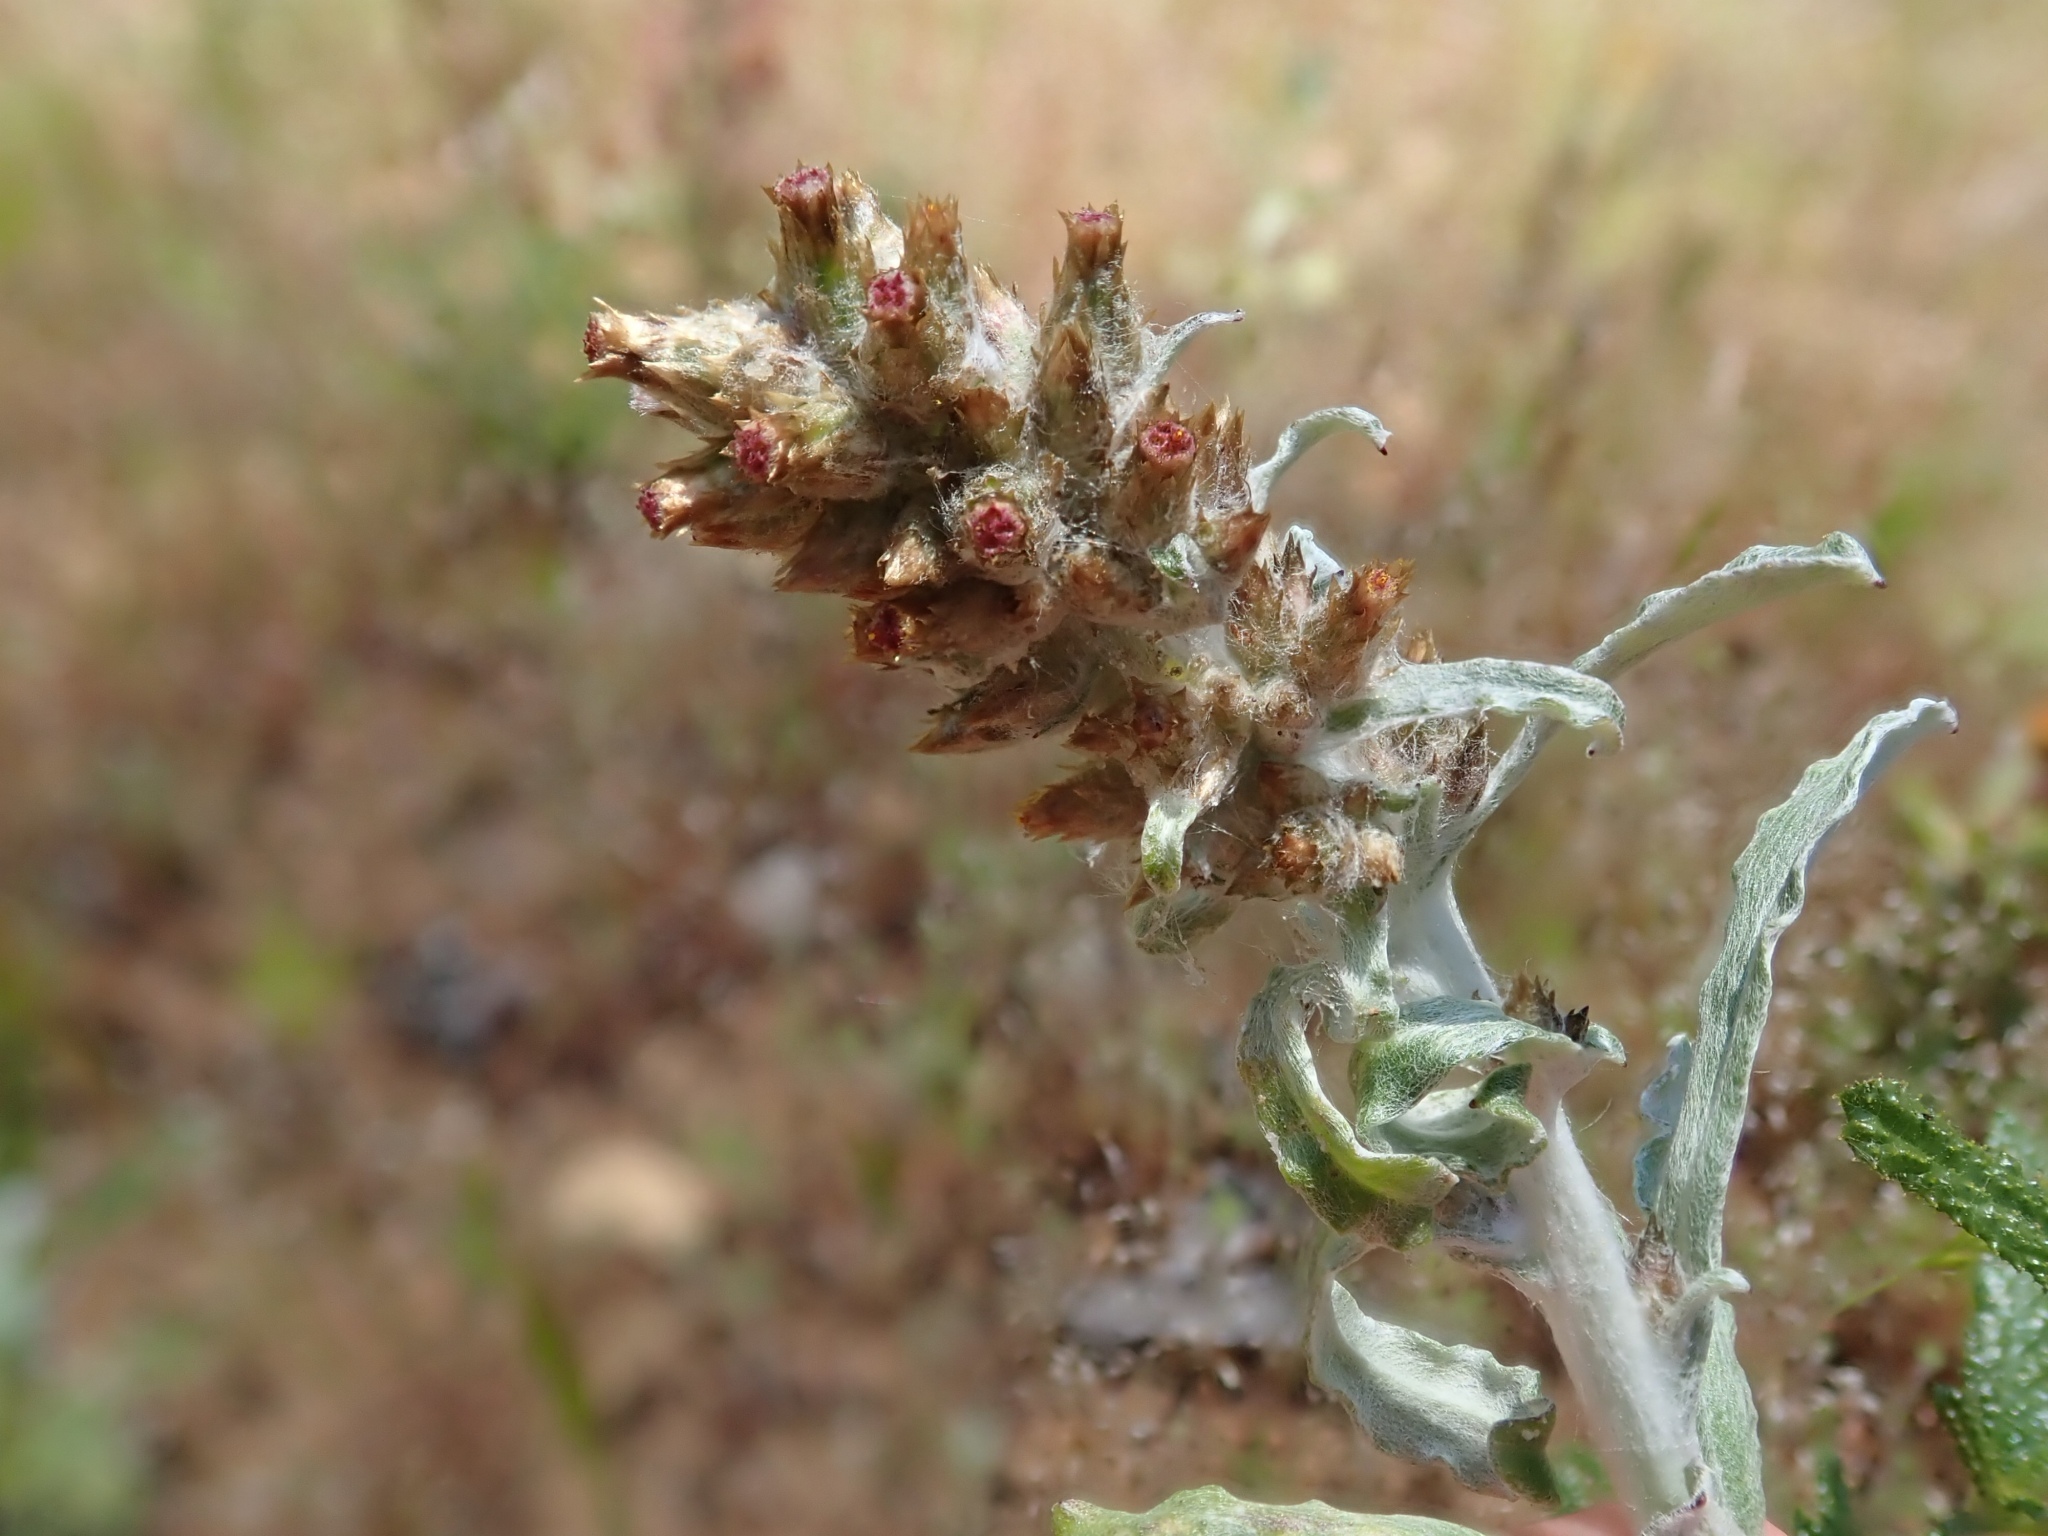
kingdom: Plantae
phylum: Tracheophyta
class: Magnoliopsida
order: Asterales
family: Asteraceae
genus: Gamochaeta
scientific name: Gamochaeta ustulata
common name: Pacific cudweed
